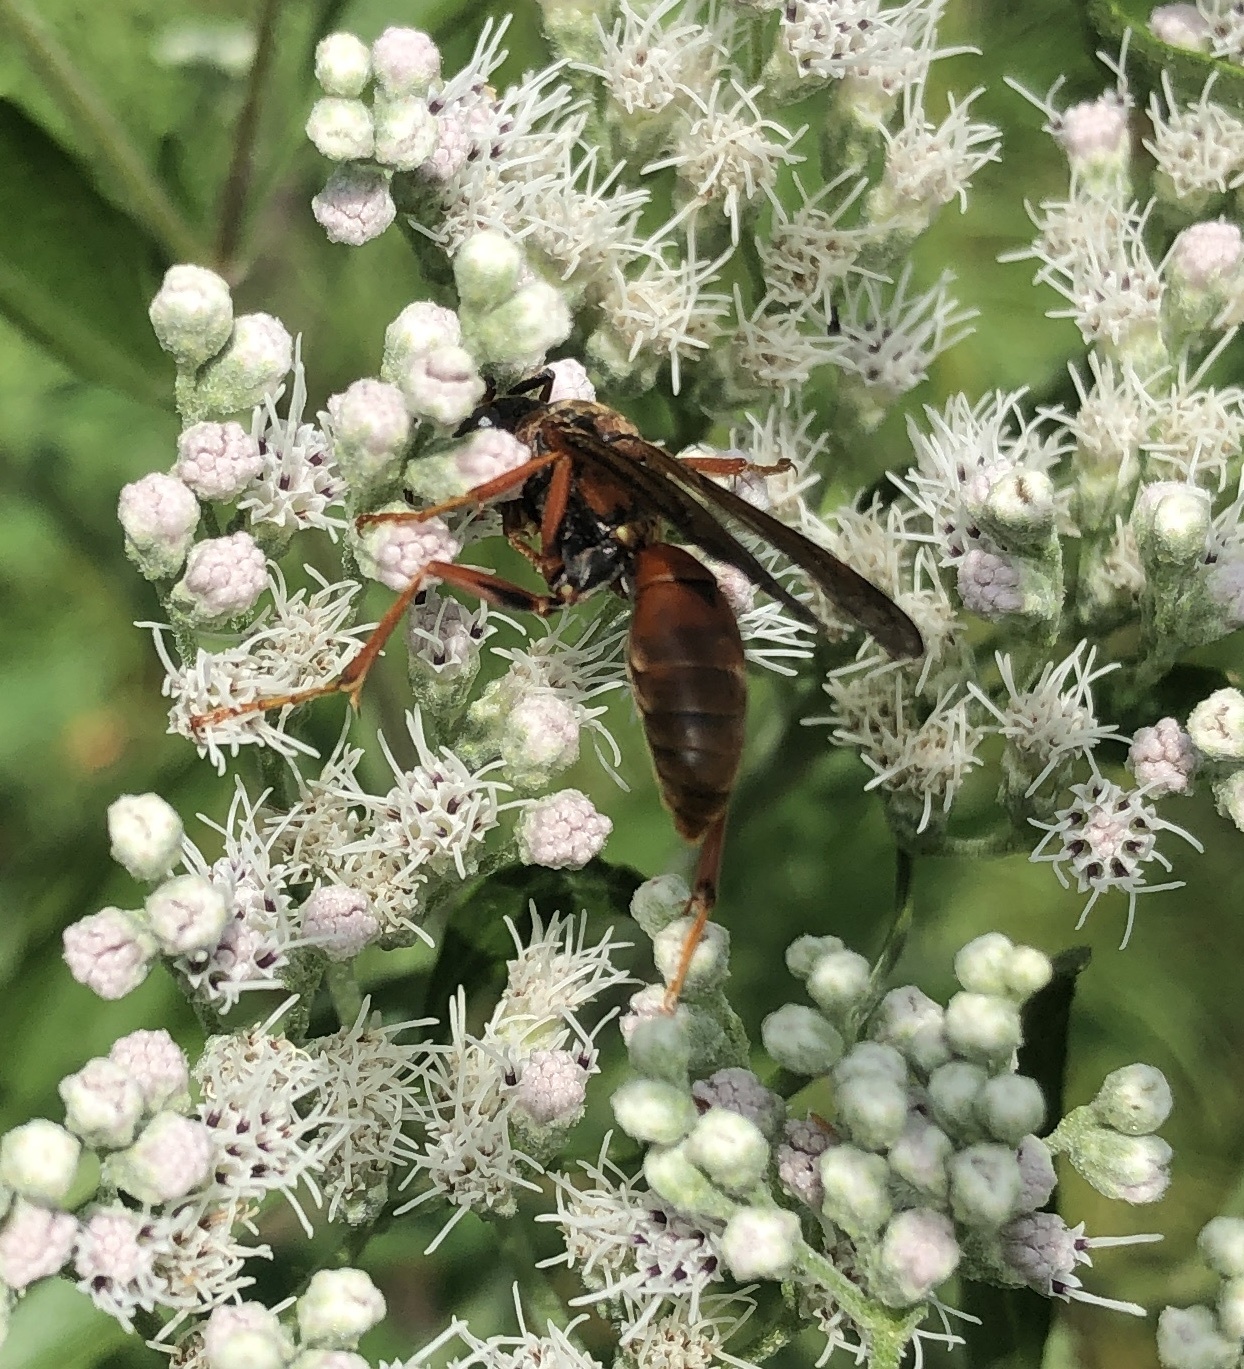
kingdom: Animalia
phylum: Arthropoda
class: Insecta
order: Hymenoptera
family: Vespidae
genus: Fuscopolistes
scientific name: Fuscopolistes
